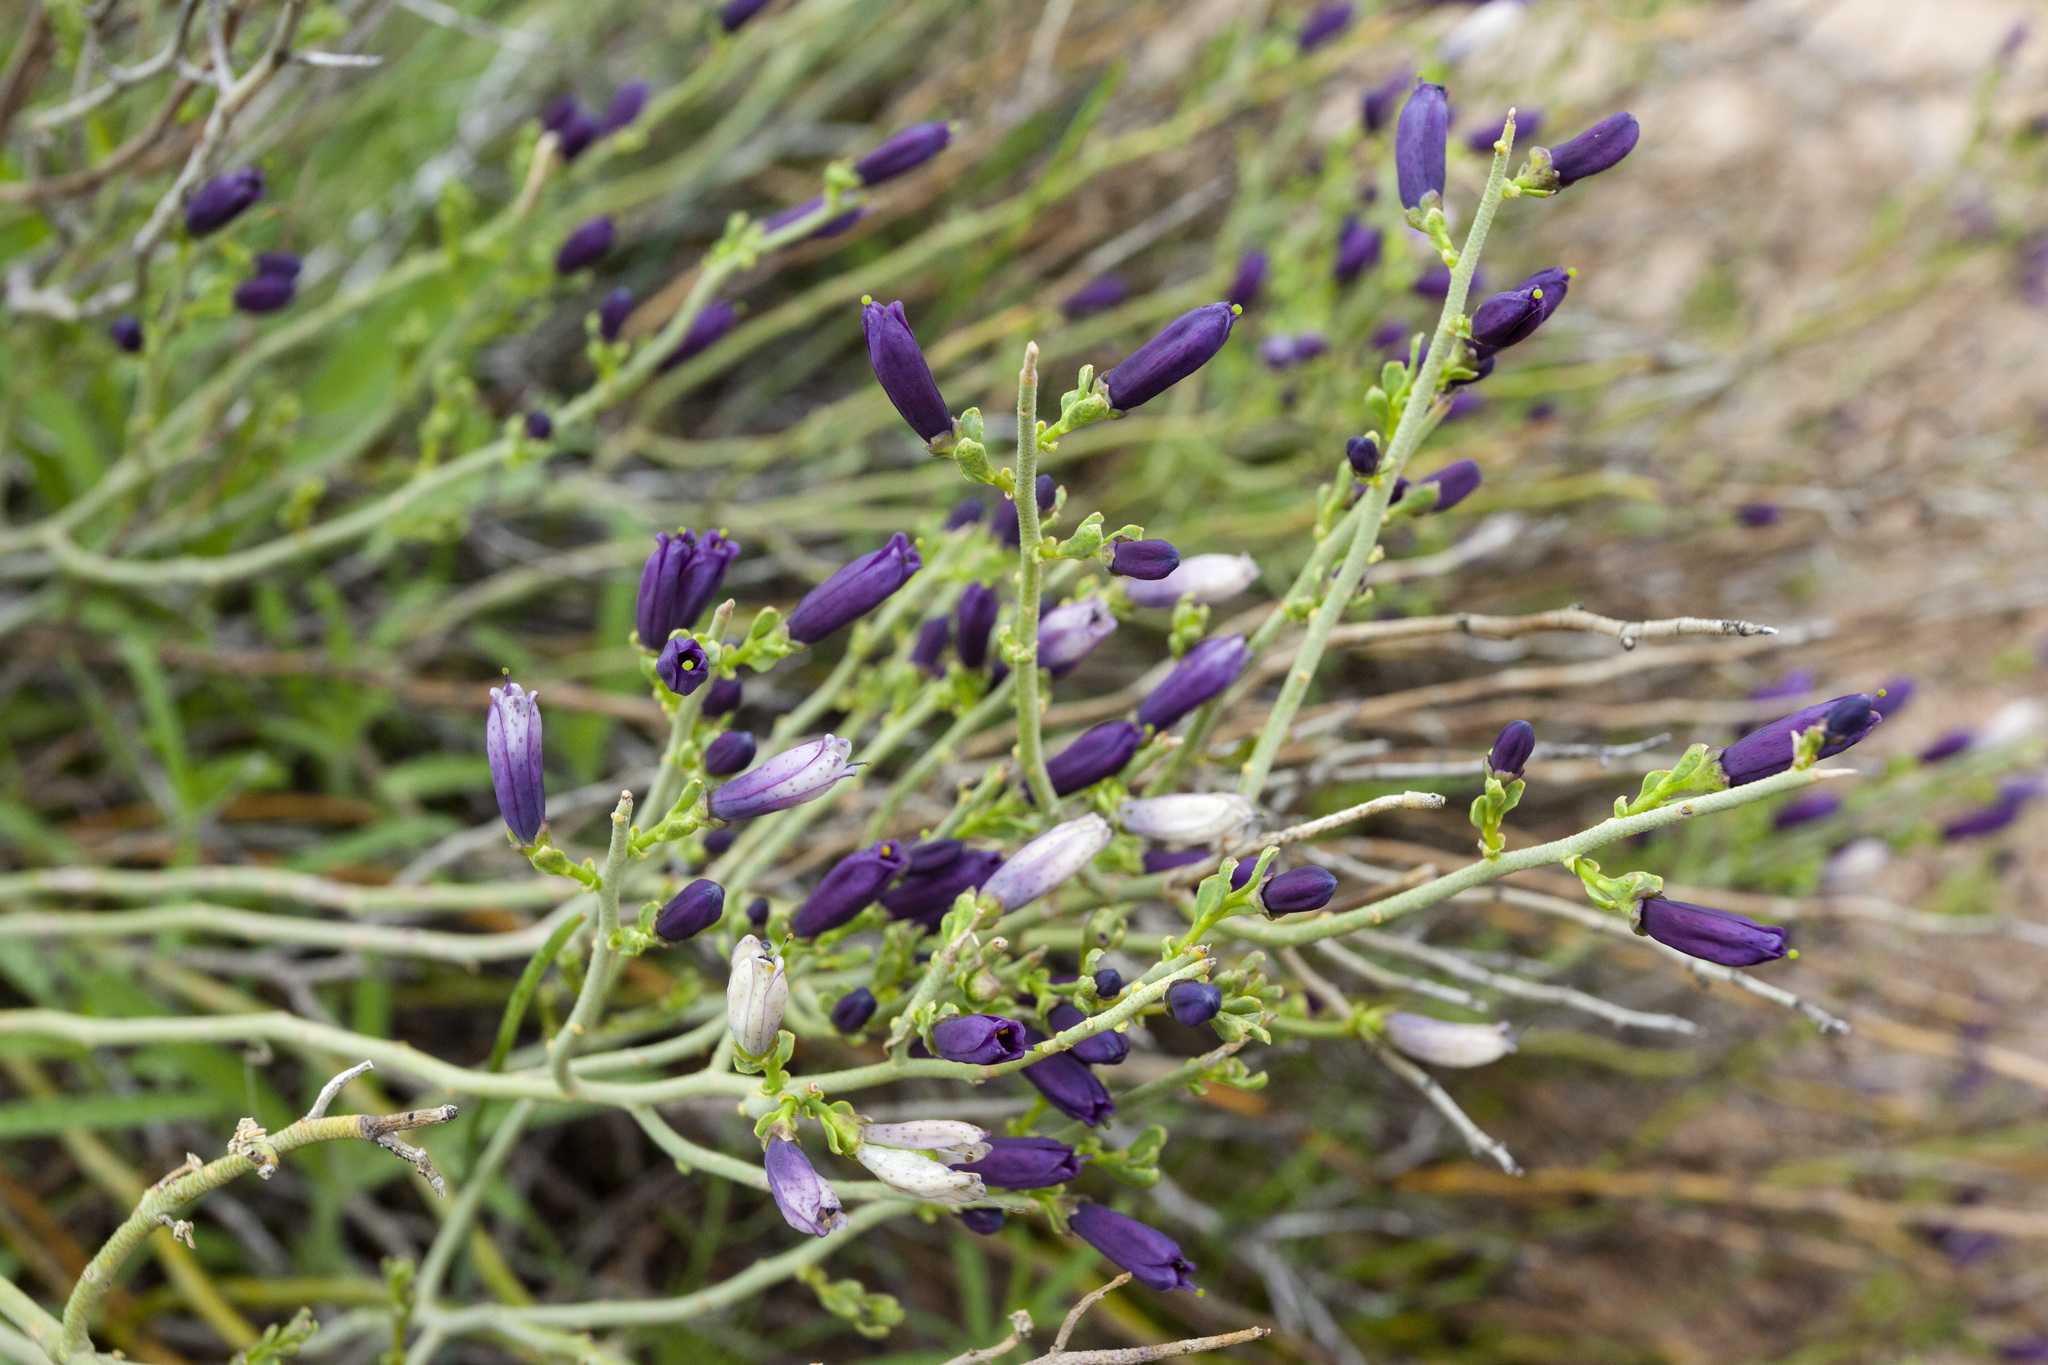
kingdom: Plantae
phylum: Tracheophyta
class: Magnoliopsida
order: Sapindales
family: Rutaceae
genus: Thamnosma
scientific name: Thamnosma montana
